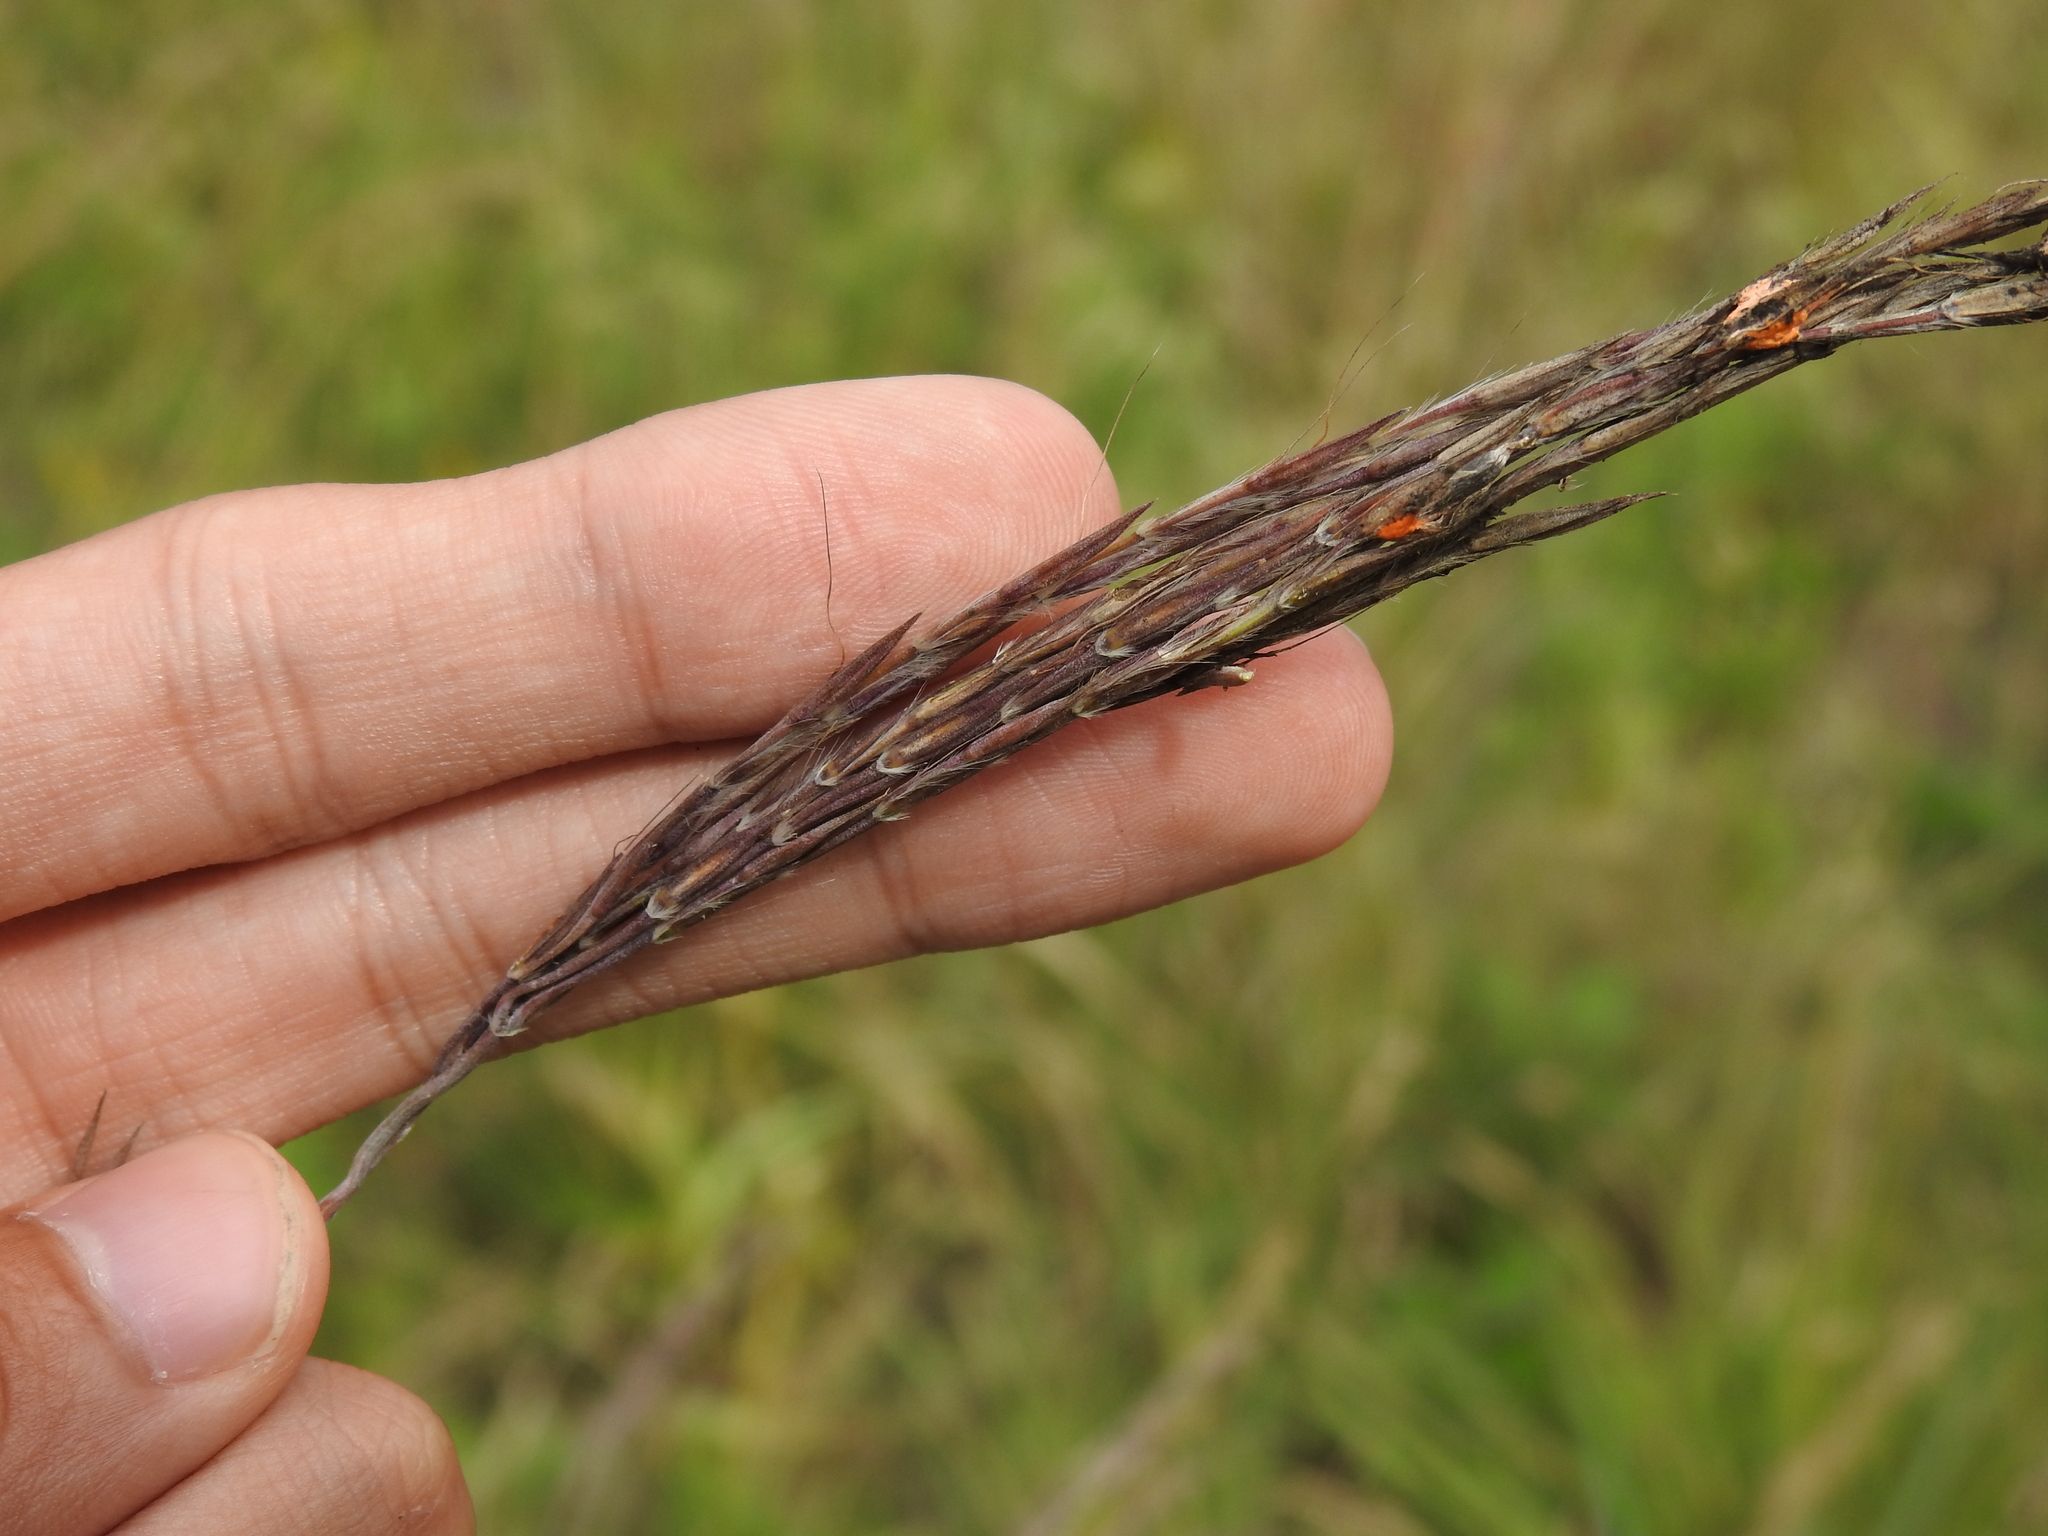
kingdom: Plantae
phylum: Tracheophyta
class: Liliopsida
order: Poales
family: Poaceae
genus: Andropogon
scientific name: Andropogon gerardi
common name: Big bluestem
